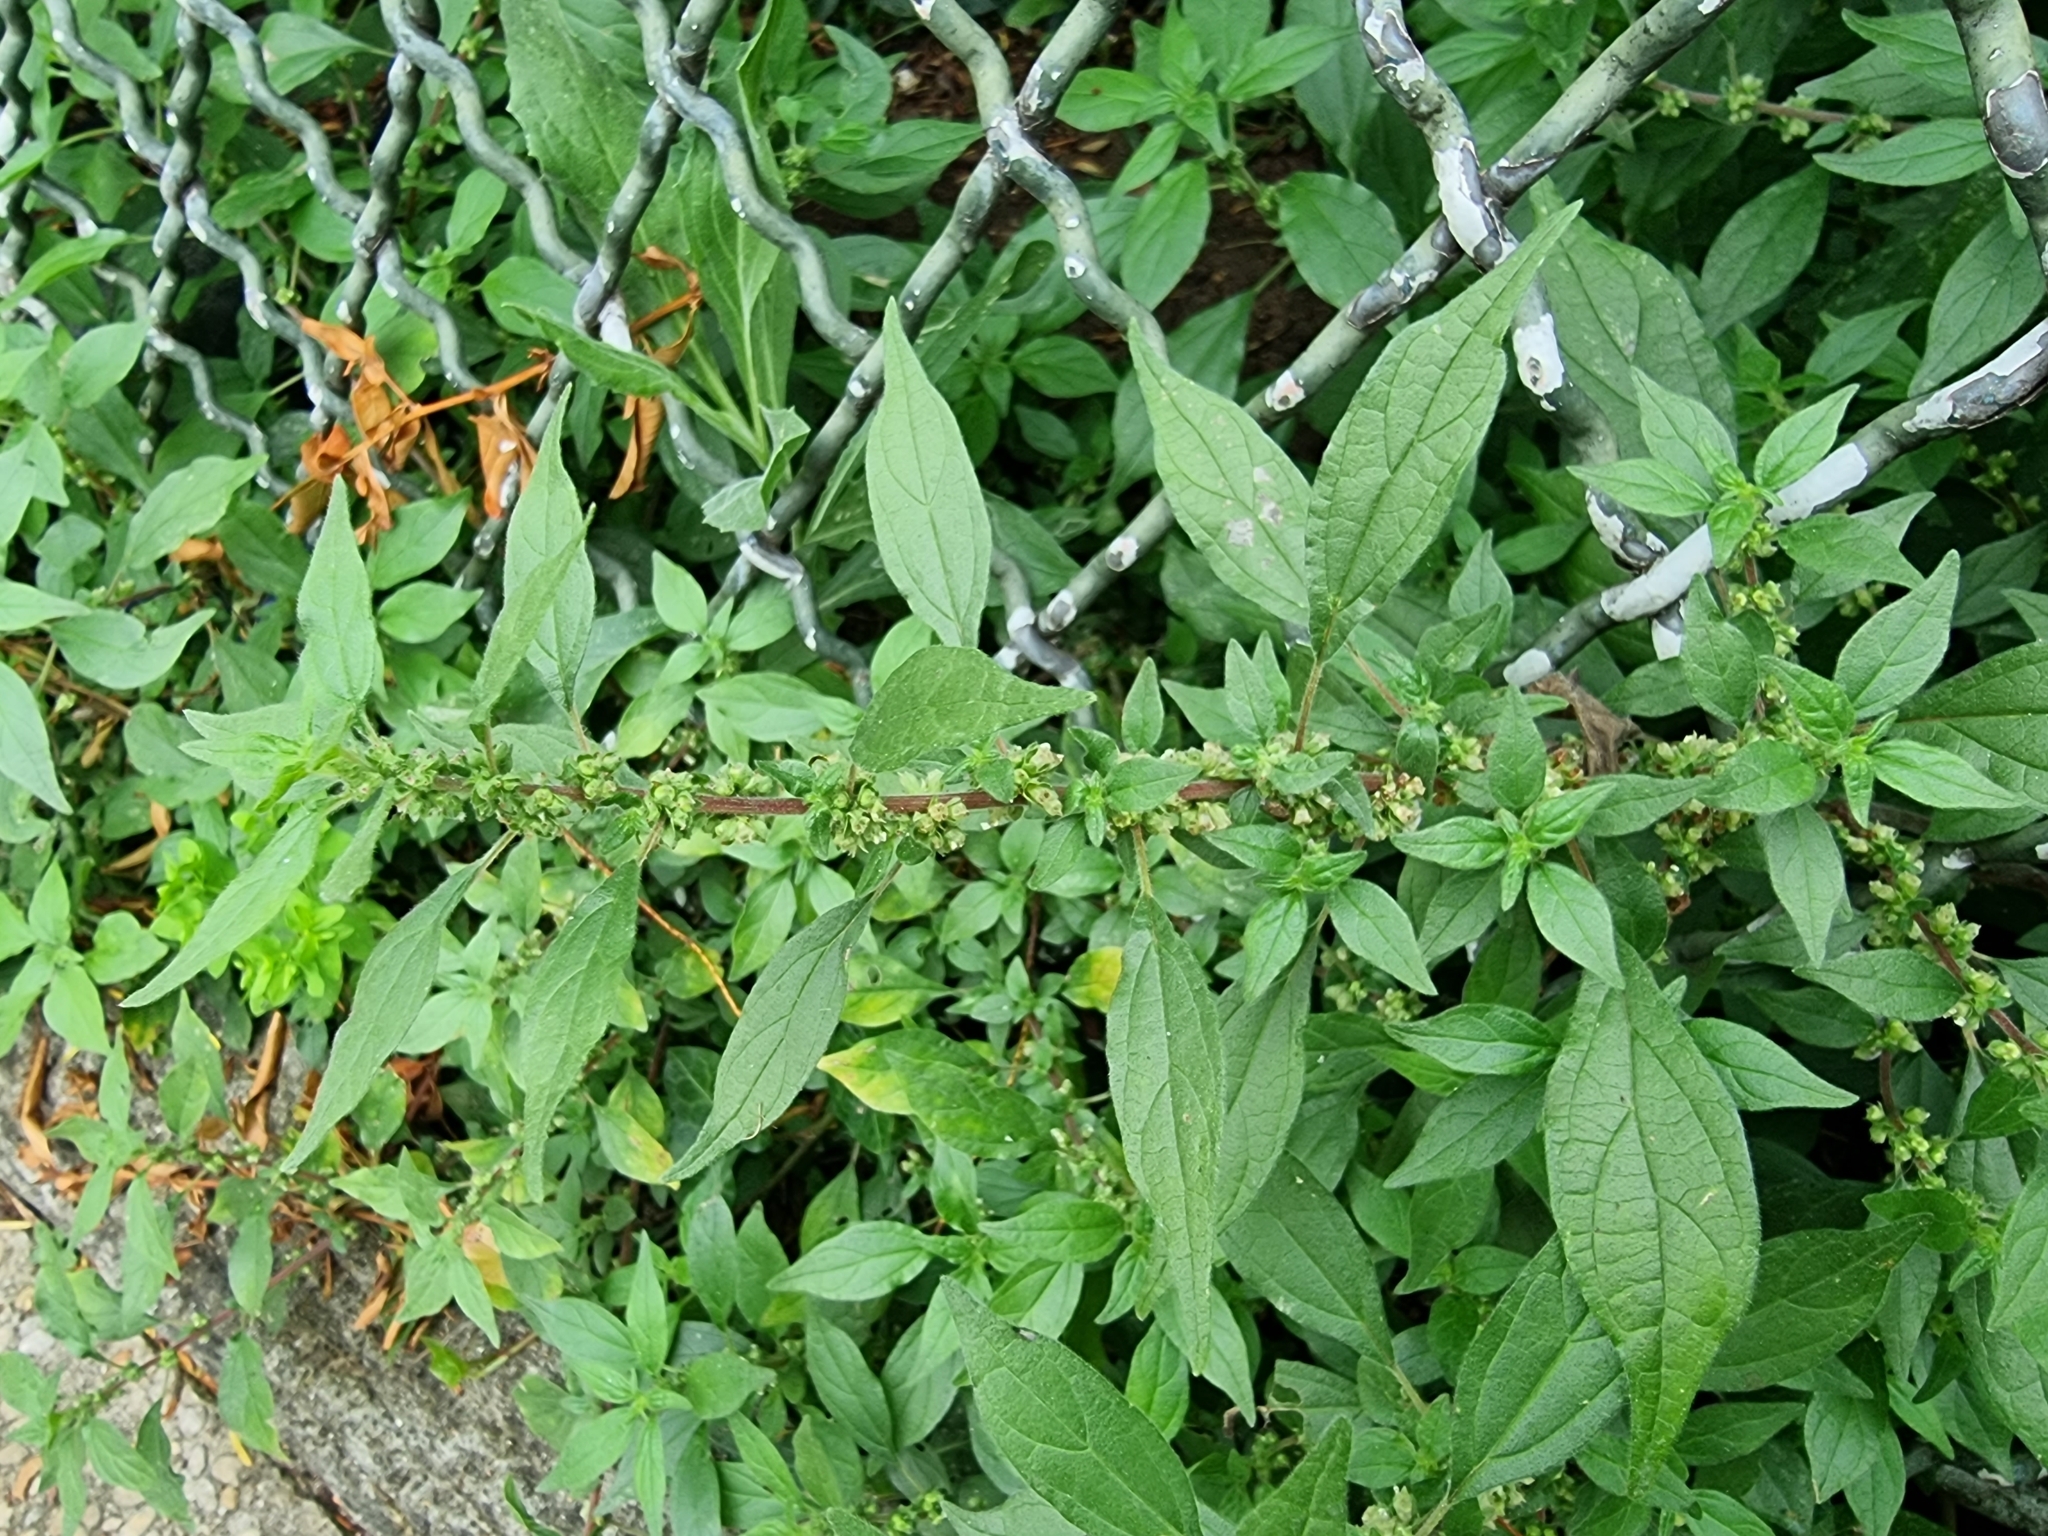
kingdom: Plantae
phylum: Tracheophyta
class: Magnoliopsida
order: Rosales
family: Urticaceae
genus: Parietaria
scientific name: Parietaria judaica
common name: Pellitory-of-the-wall
